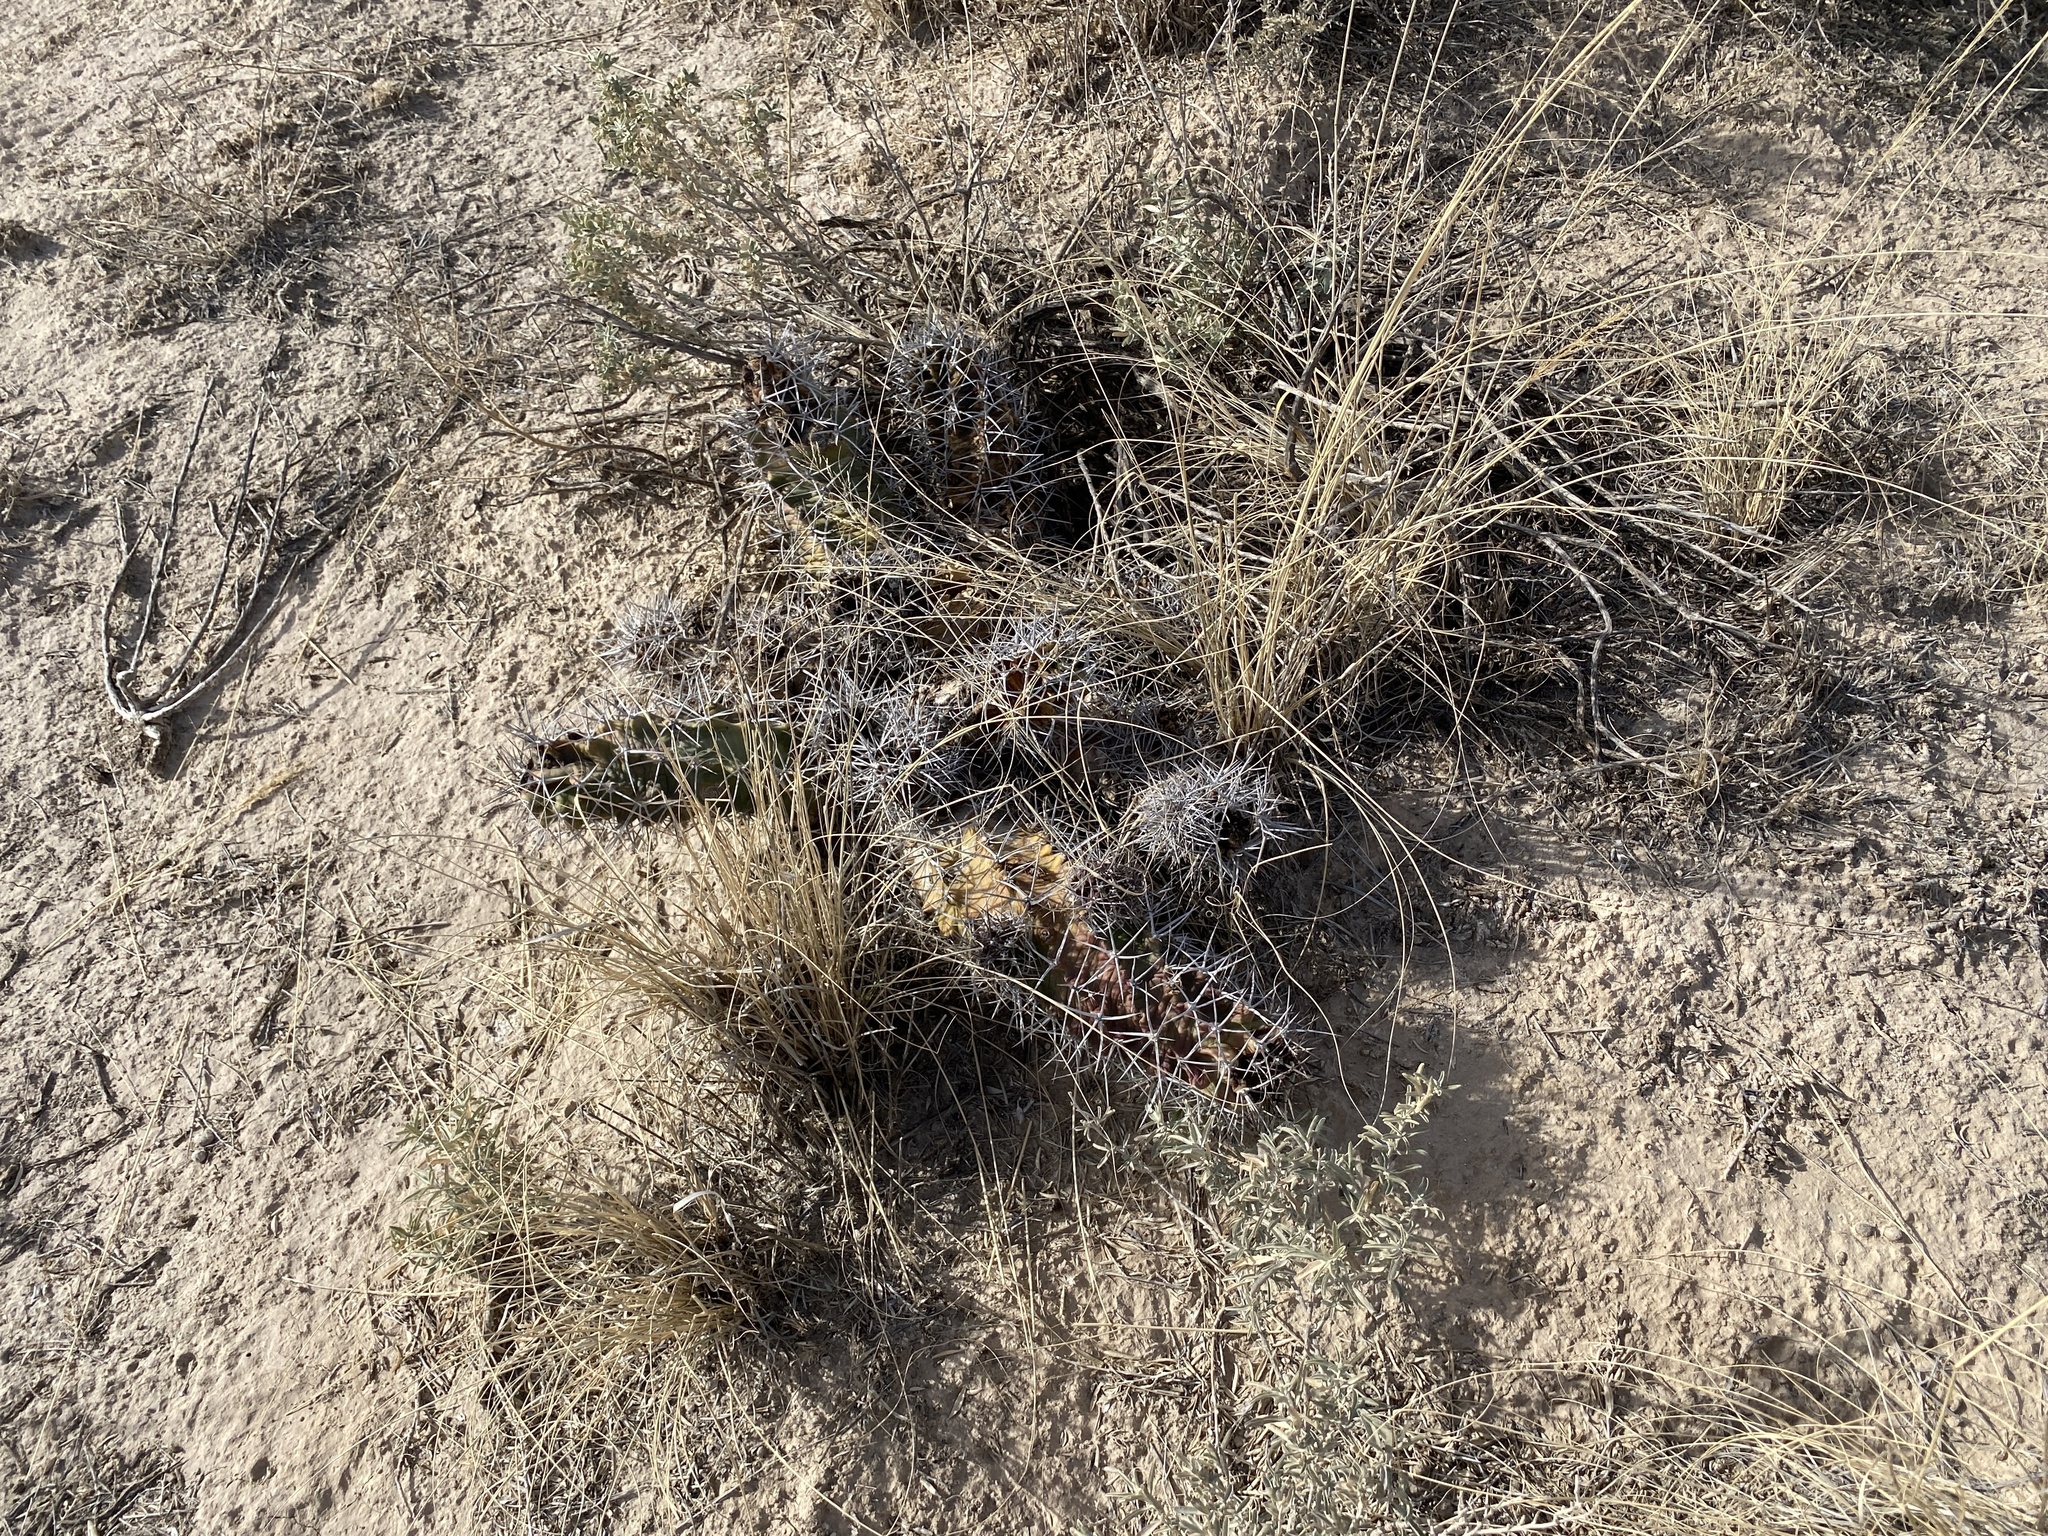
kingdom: Plantae
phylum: Tracheophyta
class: Magnoliopsida
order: Caryophyllales
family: Cactaceae
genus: Echinocereus
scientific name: Echinocereus triglochidiatus
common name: Claretcup hedgehog
